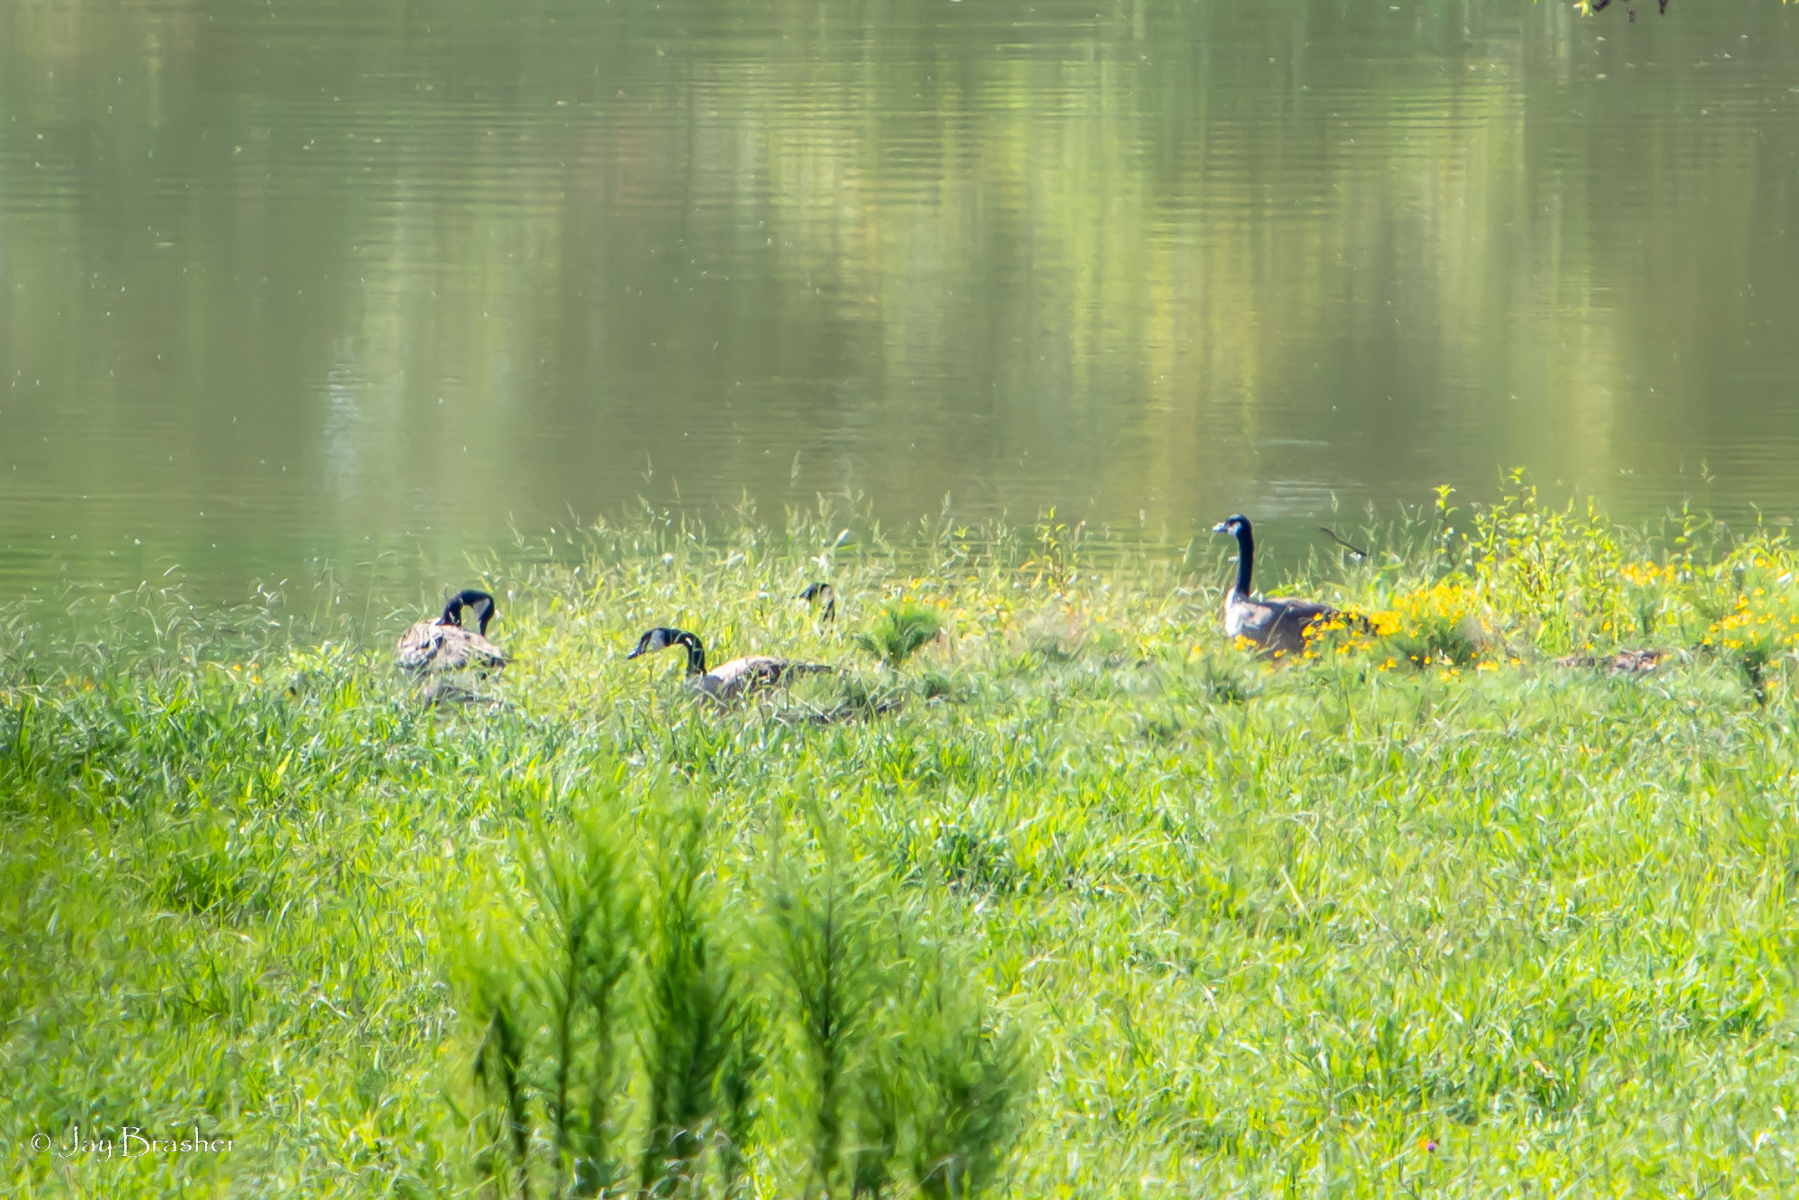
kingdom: Animalia
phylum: Chordata
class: Aves
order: Anseriformes
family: Anatidae
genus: Branta
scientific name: Branta canadensis
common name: Canada goose
